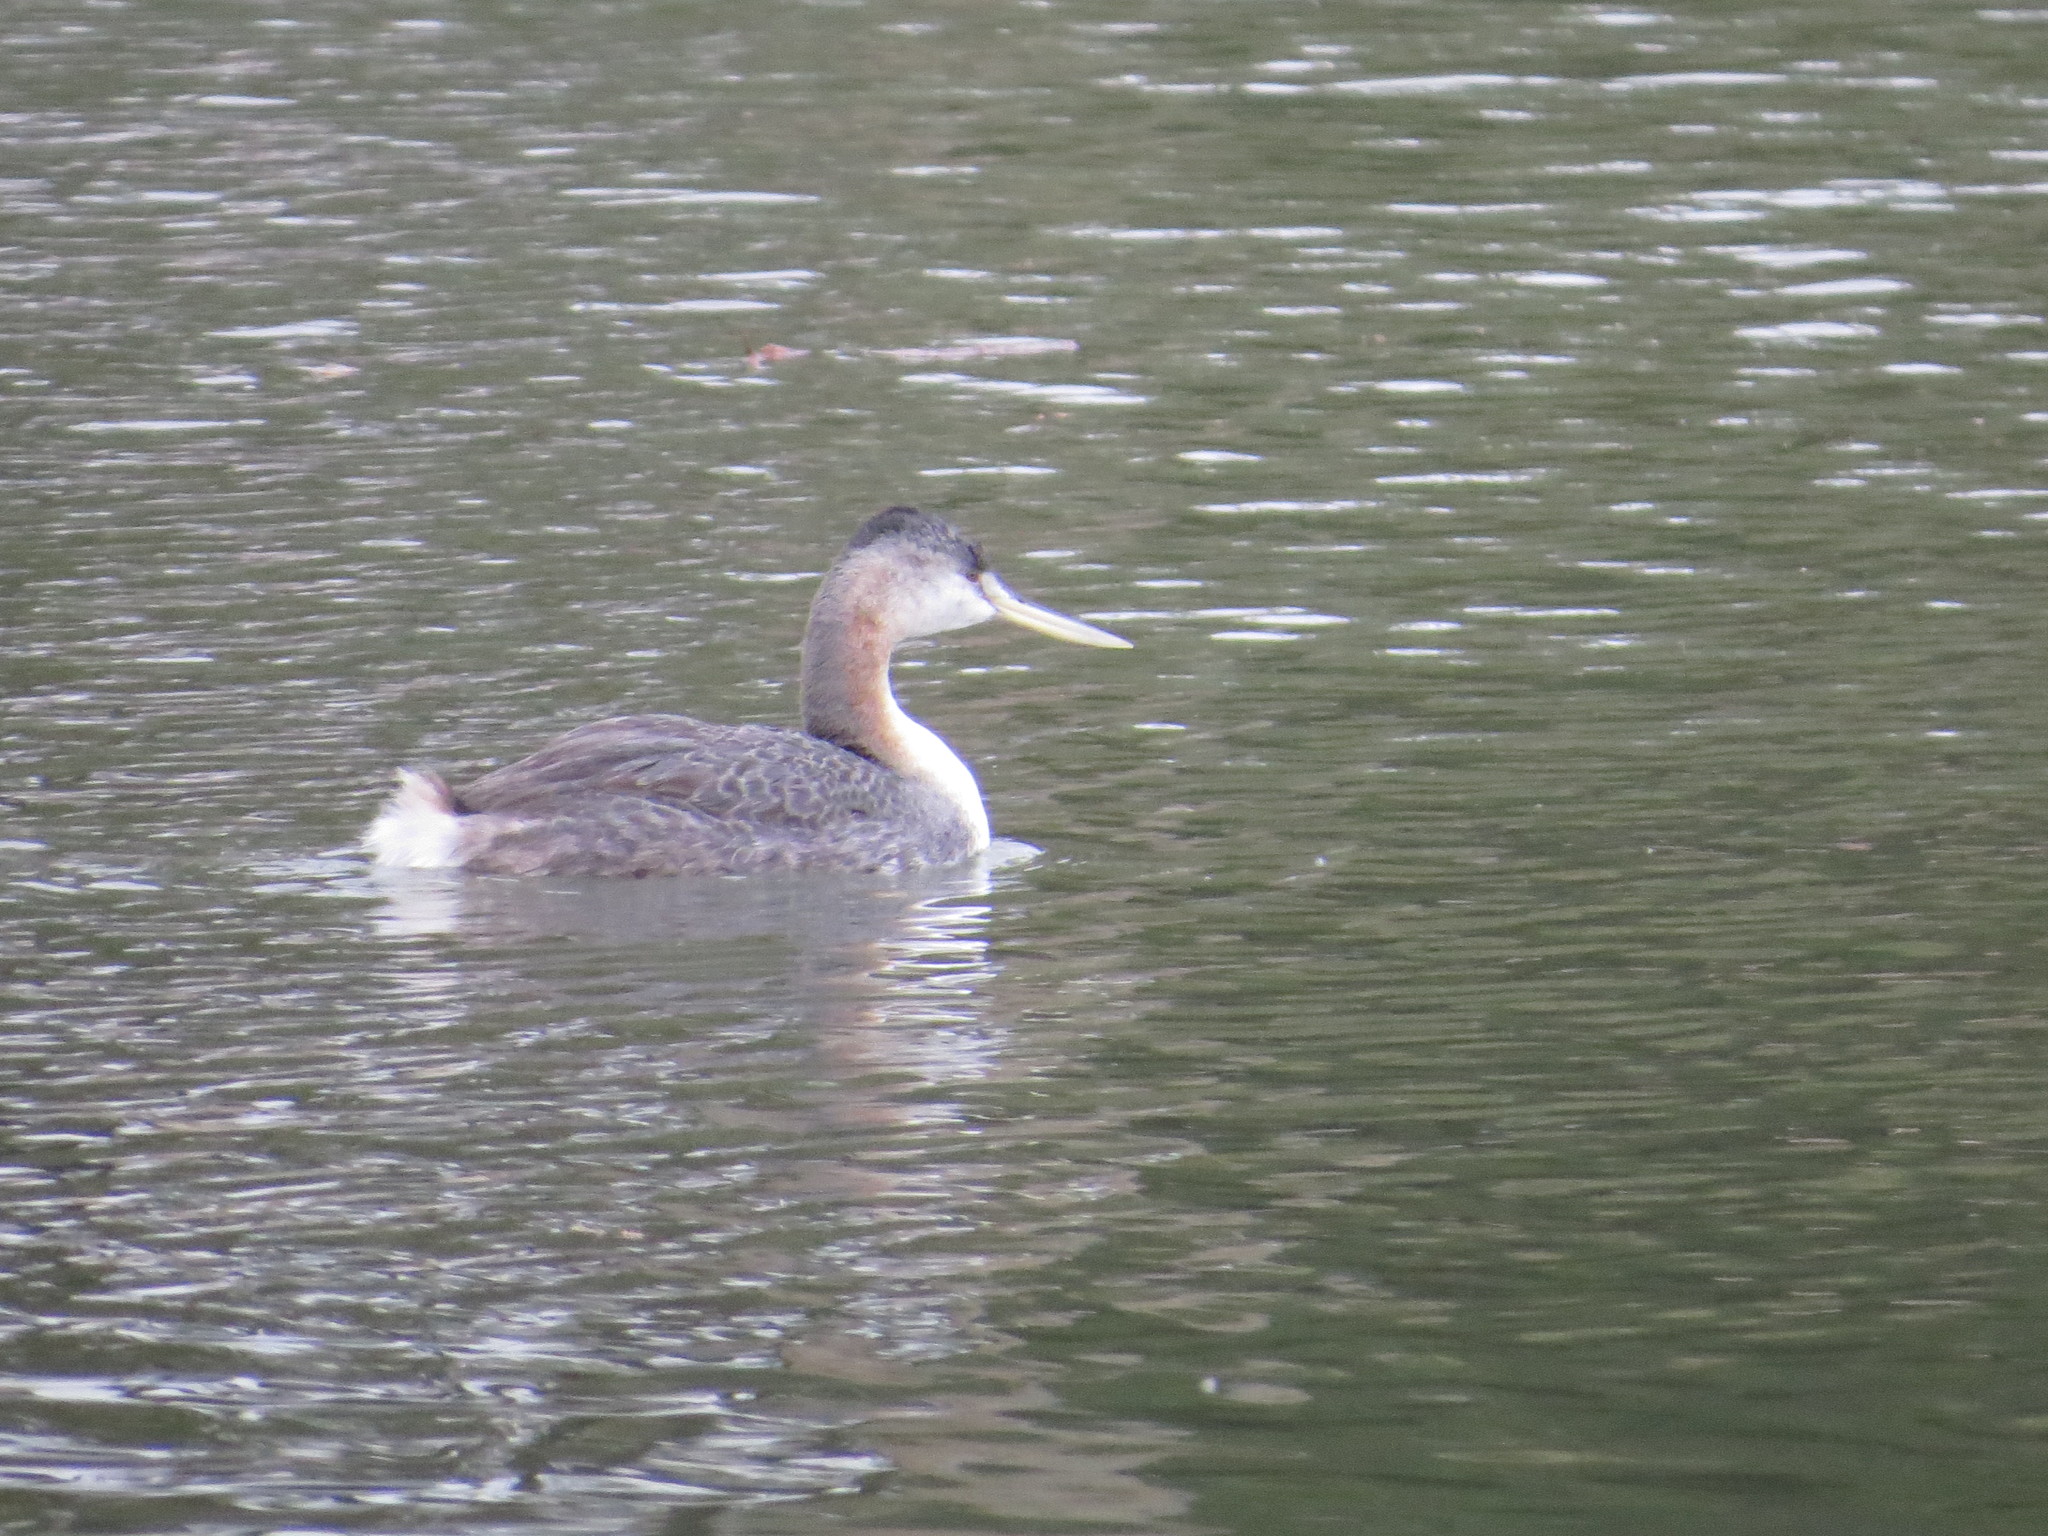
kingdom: Animalia
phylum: Chordata
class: Aves
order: Podicipediformes
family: Podicipedidae
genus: Podiceps
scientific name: Podiceps major
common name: Great grebe
